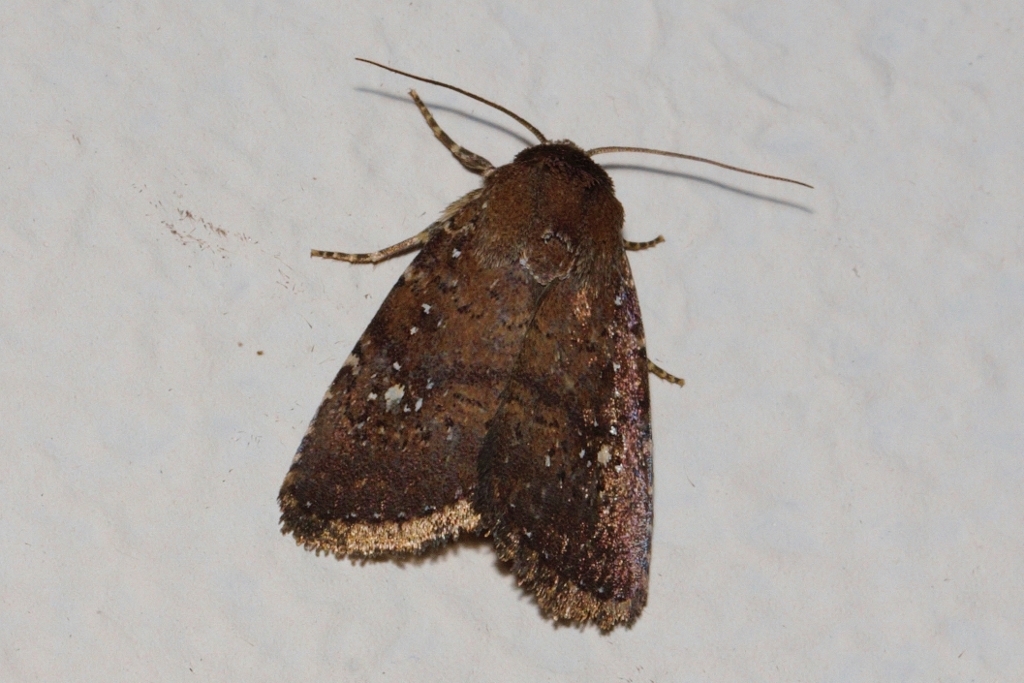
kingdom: Animalia
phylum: Arthropoda
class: Insecta
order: Lepidoptera
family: Noctuidae
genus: Athetis
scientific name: Athetis satellitia
